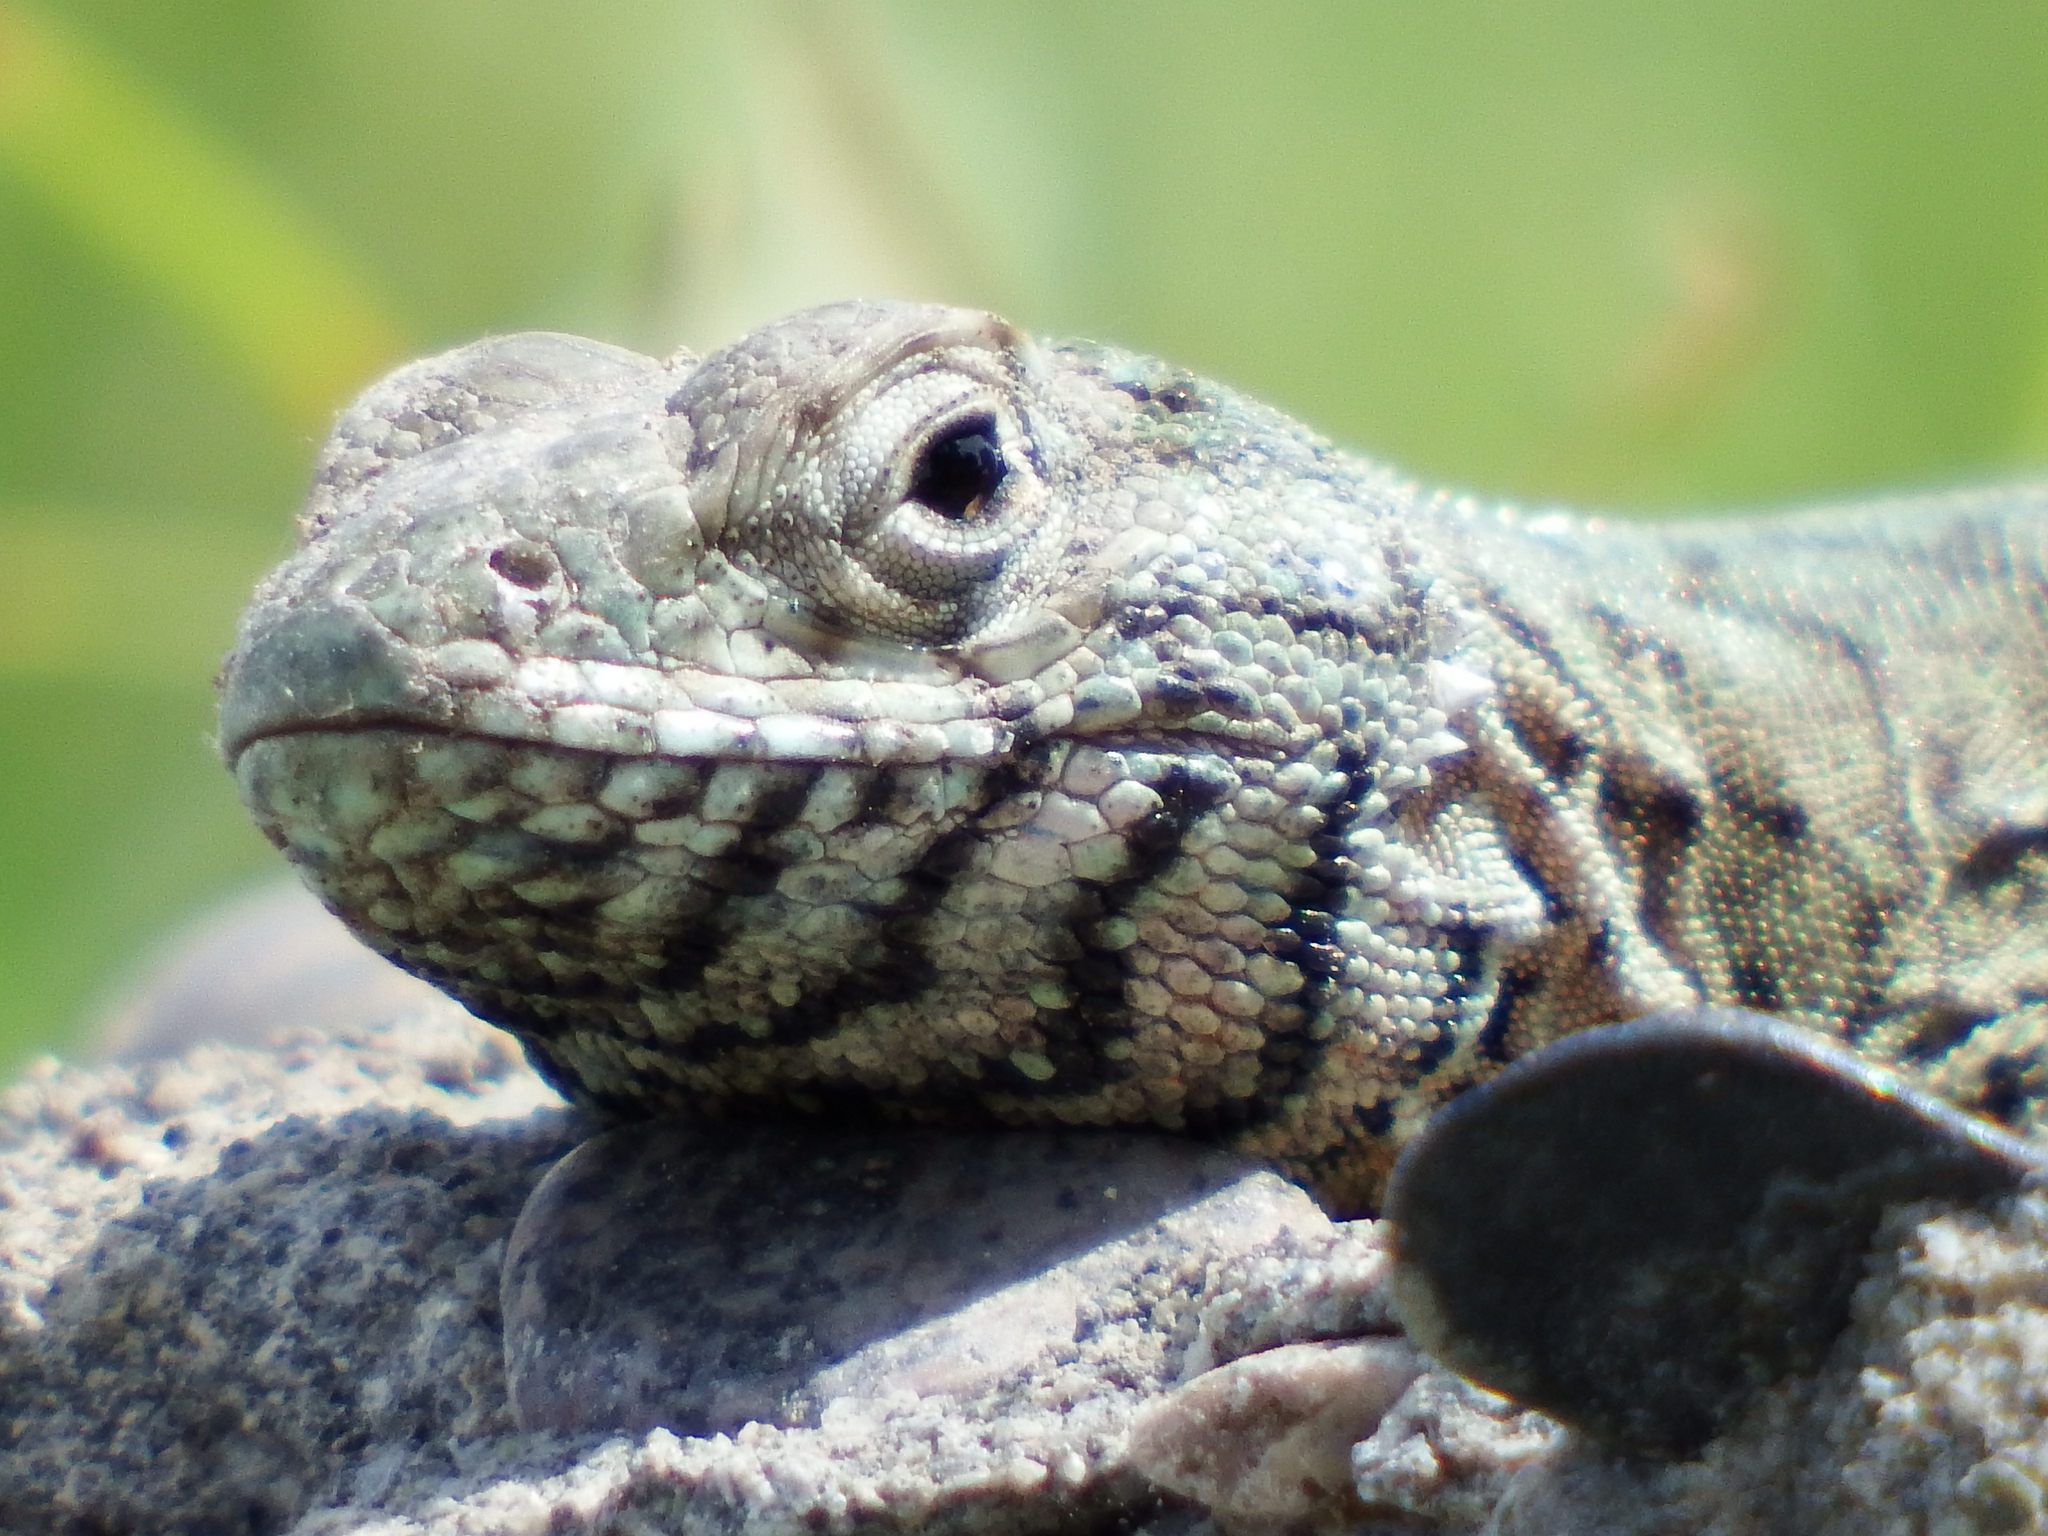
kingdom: Animalia
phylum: Chordata
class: Squamata
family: Tropiduridae
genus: Microlophus
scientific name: Microlophus peruvianus
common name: Peru pacific iguana
